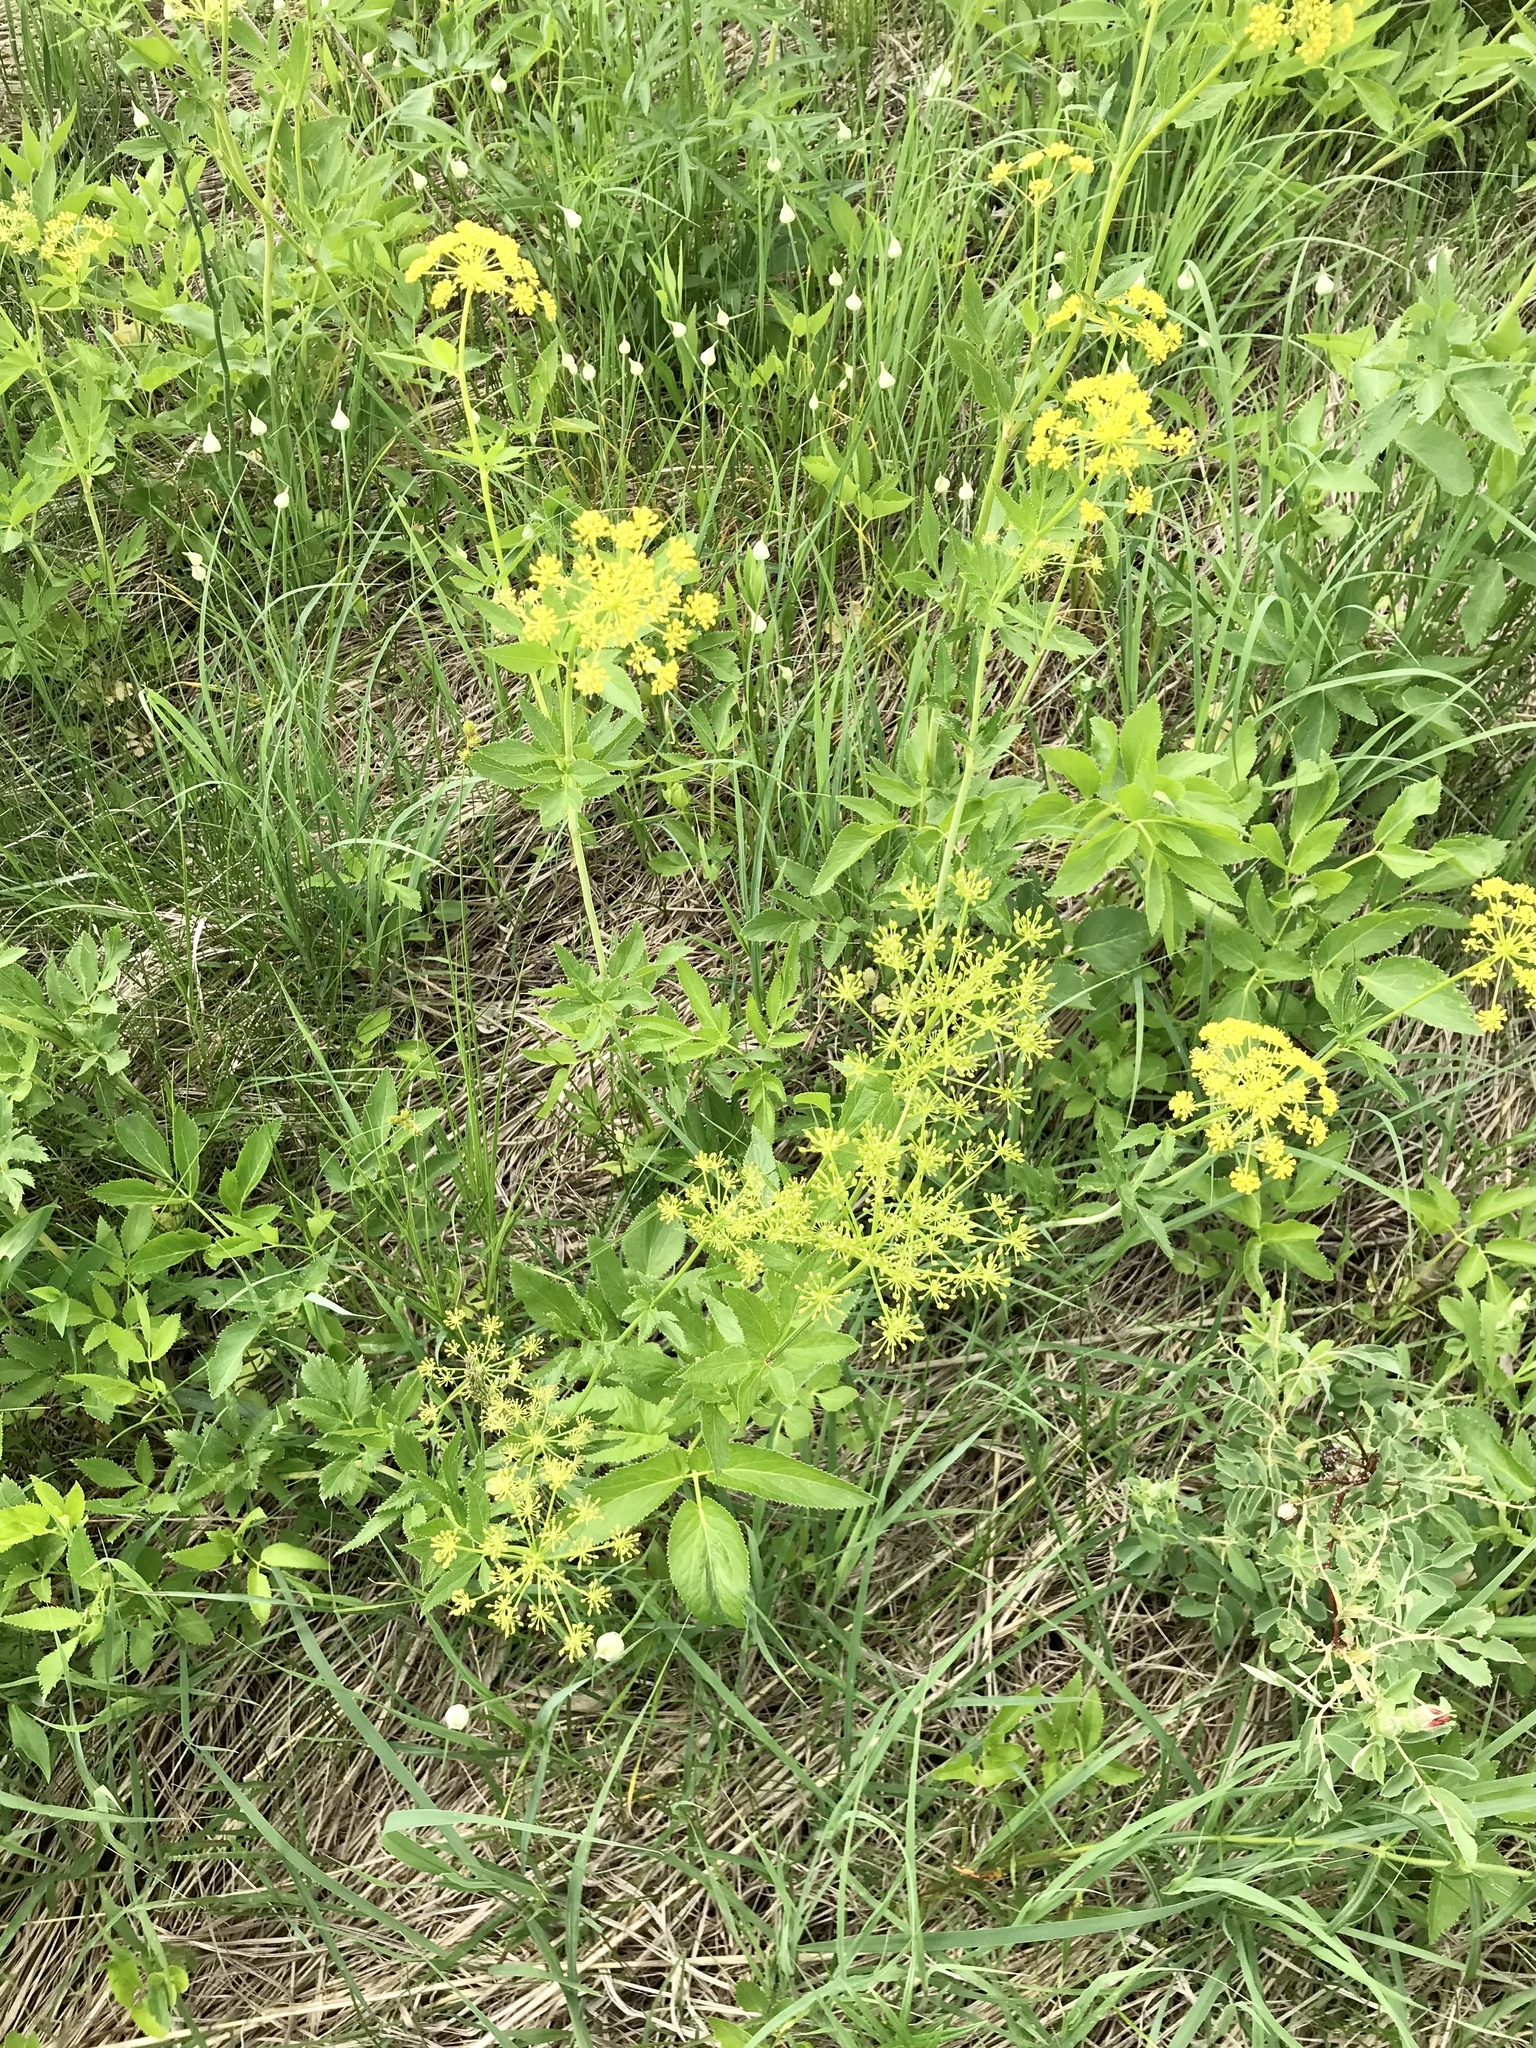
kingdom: Plantae
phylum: Tracheophyta
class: Magnoliopsida
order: Apiales
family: Apiaceae
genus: Zizia
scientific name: Zizia aurea
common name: Golden alexanders
